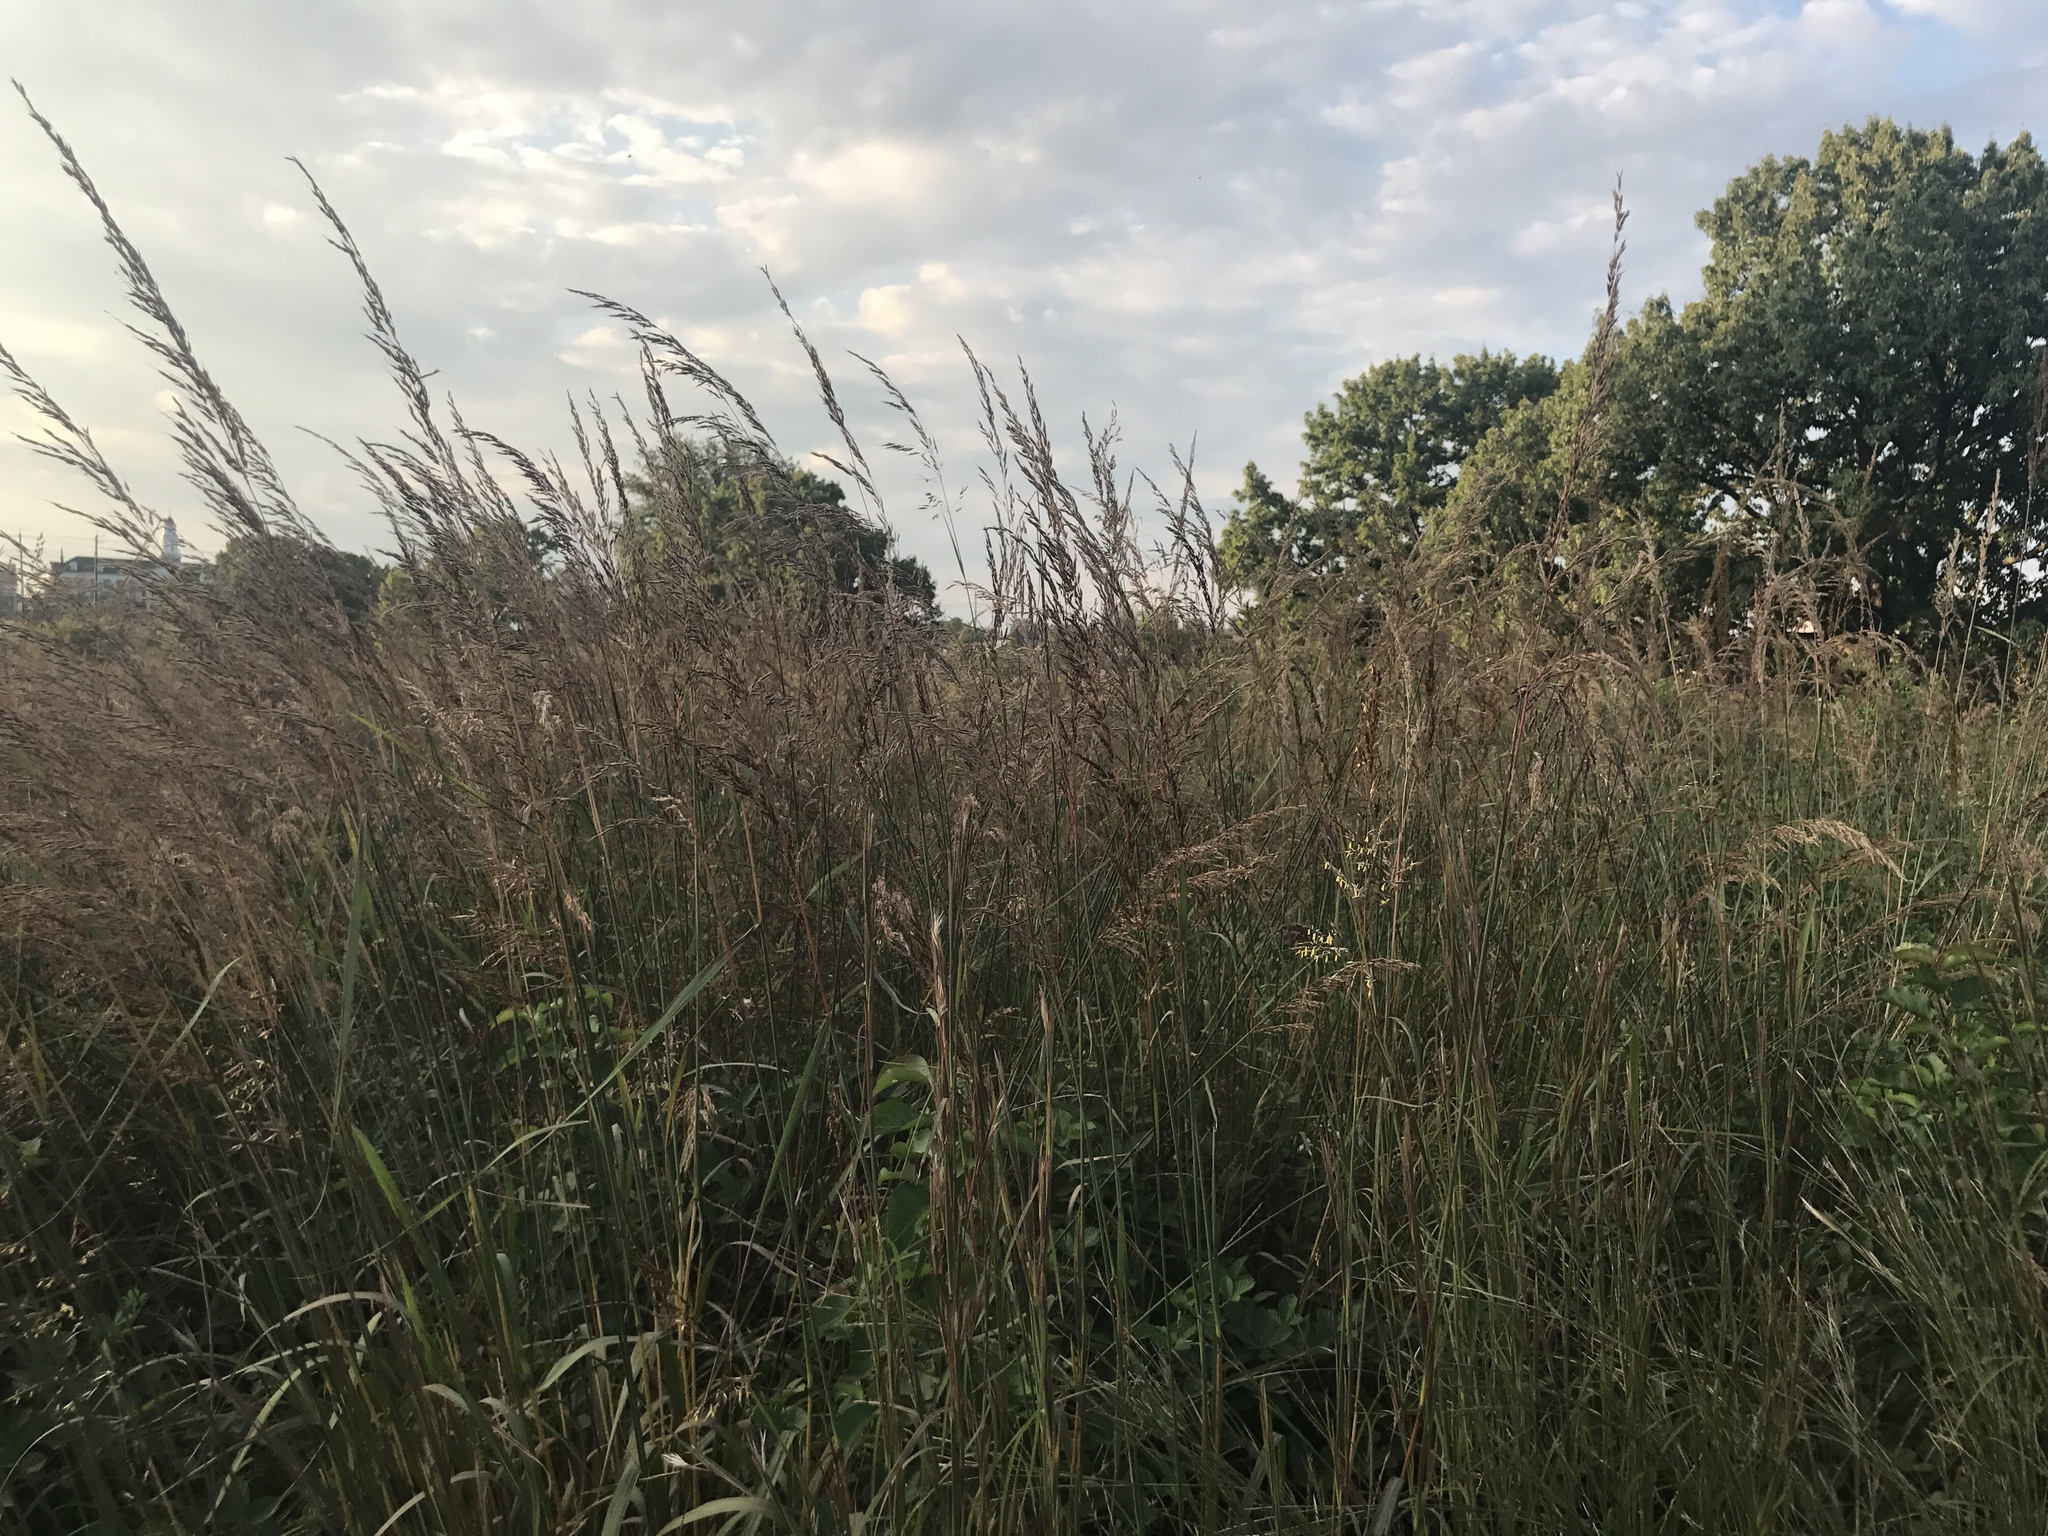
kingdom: Plantae
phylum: Tracheophyta
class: Liliopsida
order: Poales
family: Poaceae
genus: Sorghastrum
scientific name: Sorghastrum nutans
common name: Indian grass
